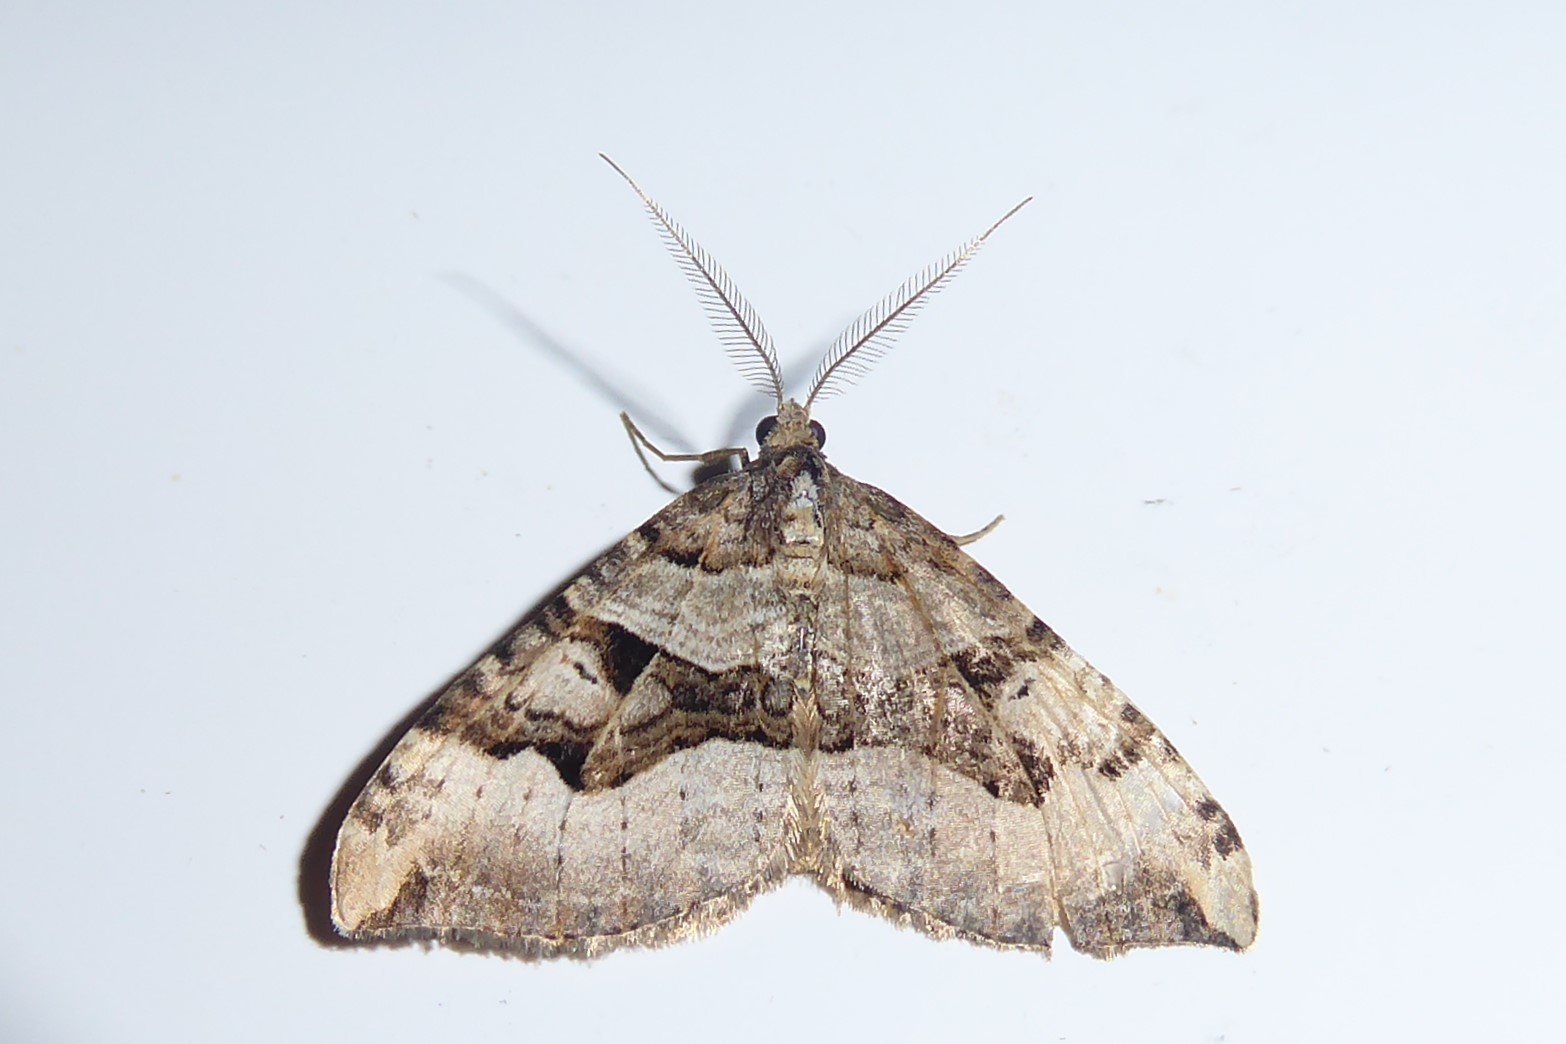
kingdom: Animalia
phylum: Arthropoda
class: Insecta
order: Lepidoptera
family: Geometridae
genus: Xanthorhoe
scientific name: Xanthorhoe semifissata
